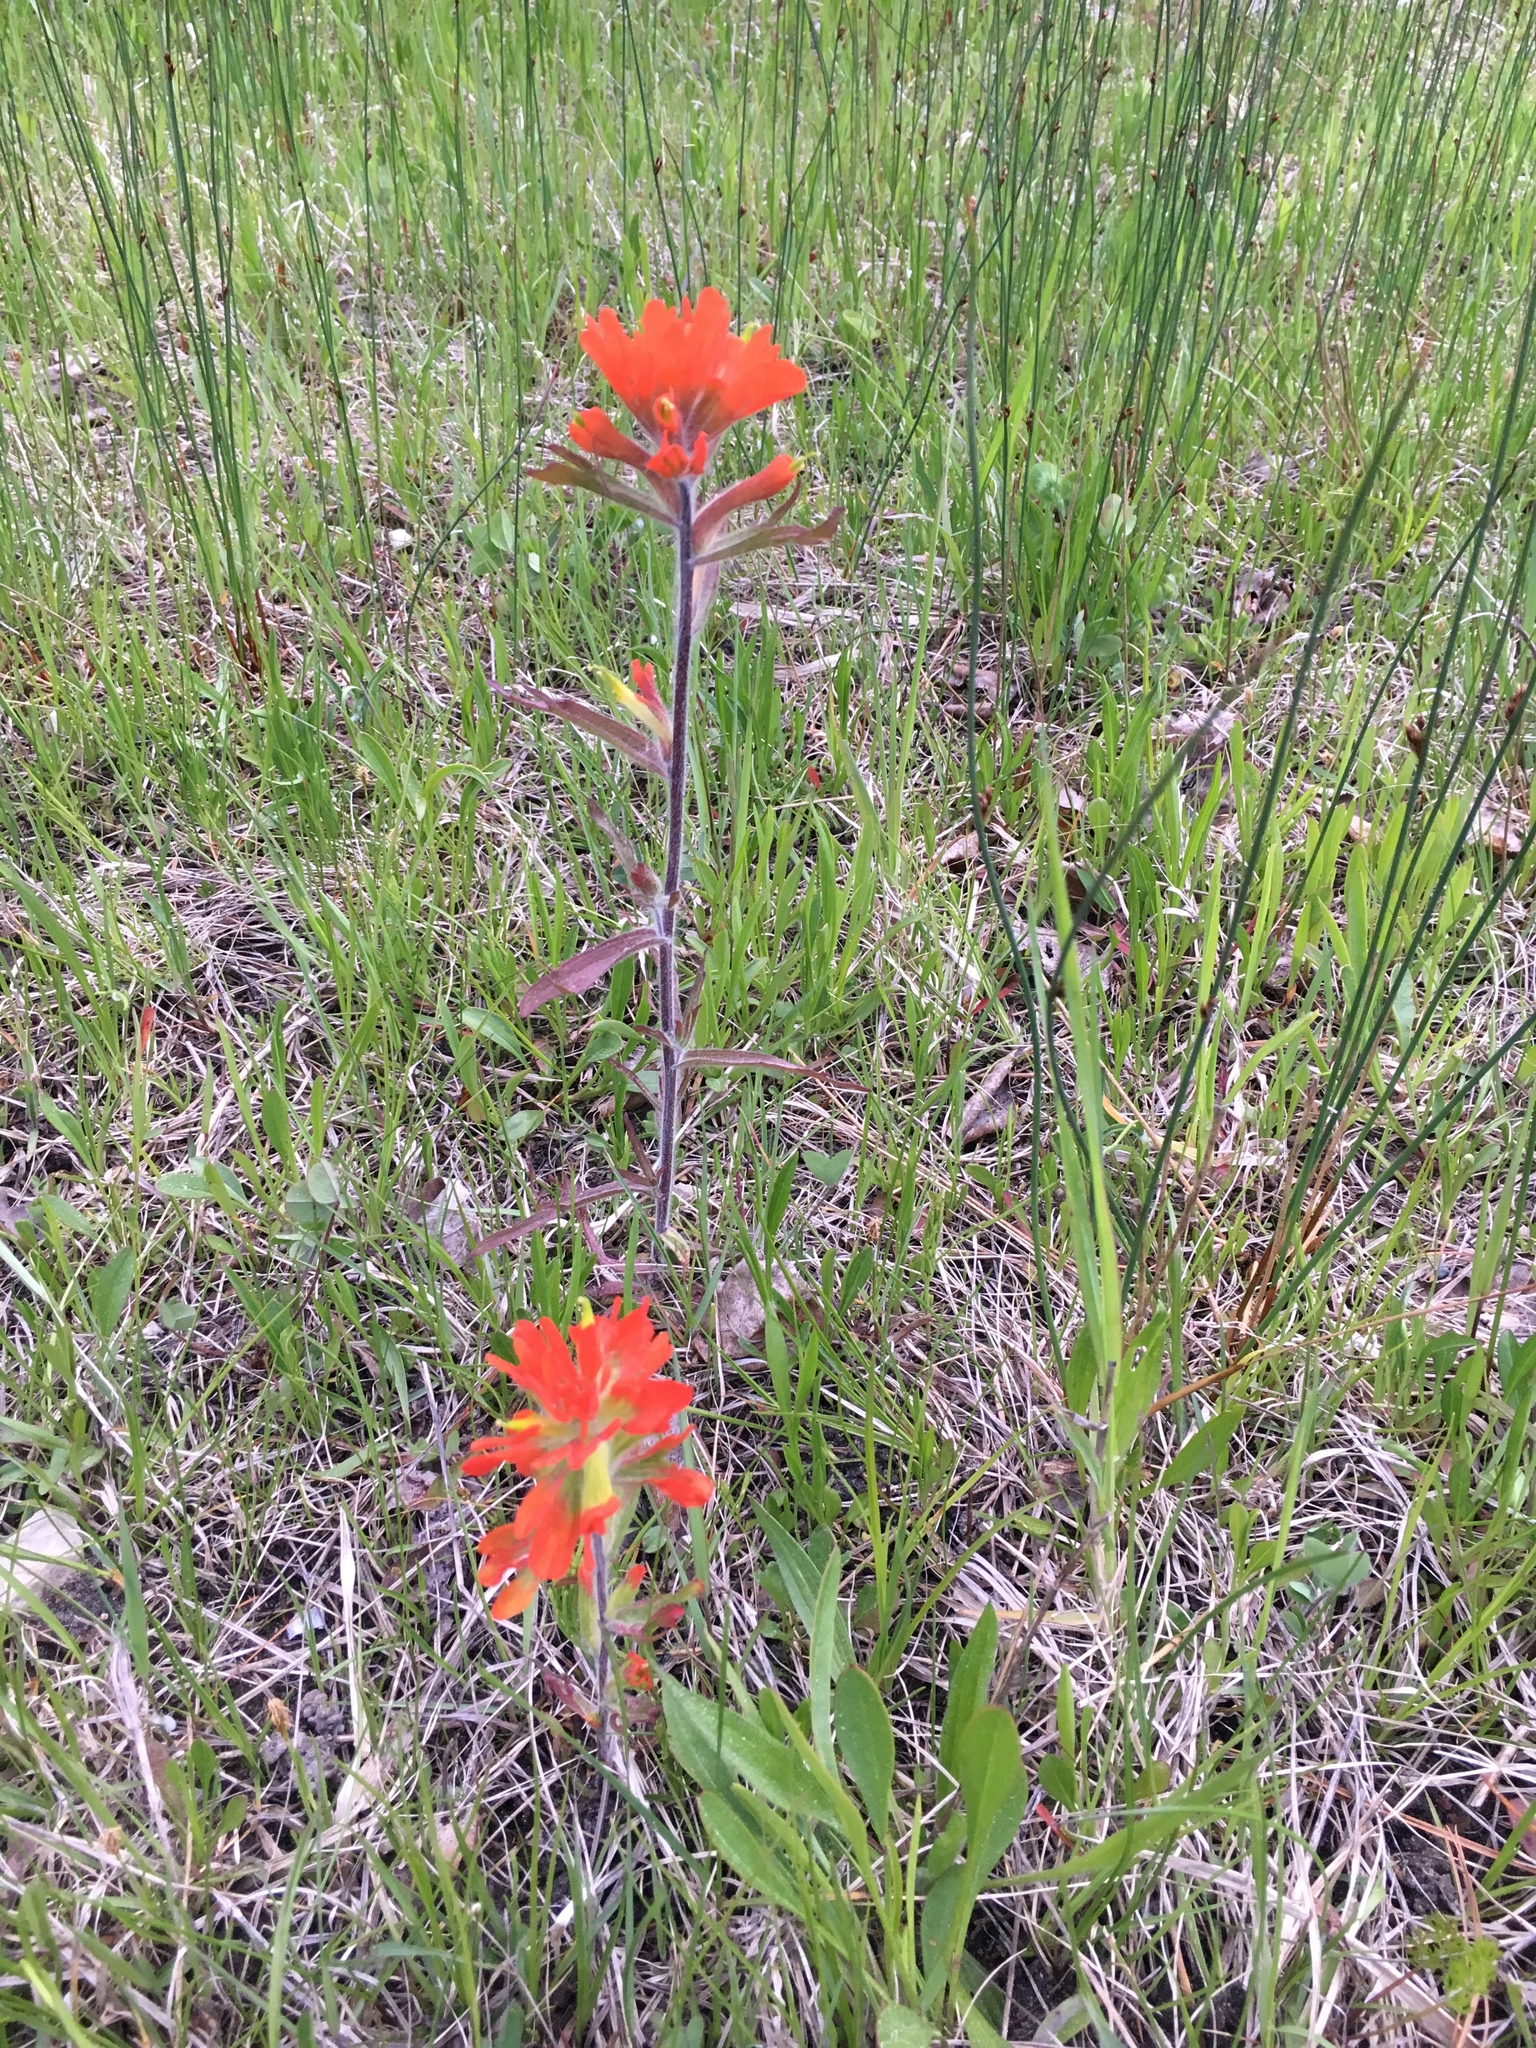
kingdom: Plantae
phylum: Tracheophyta
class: Magnoliopsida
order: Lamiales
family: Orobanchaceae
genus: Castilleja
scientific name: Castilleja coccinea
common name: Scarlet paintbrush
